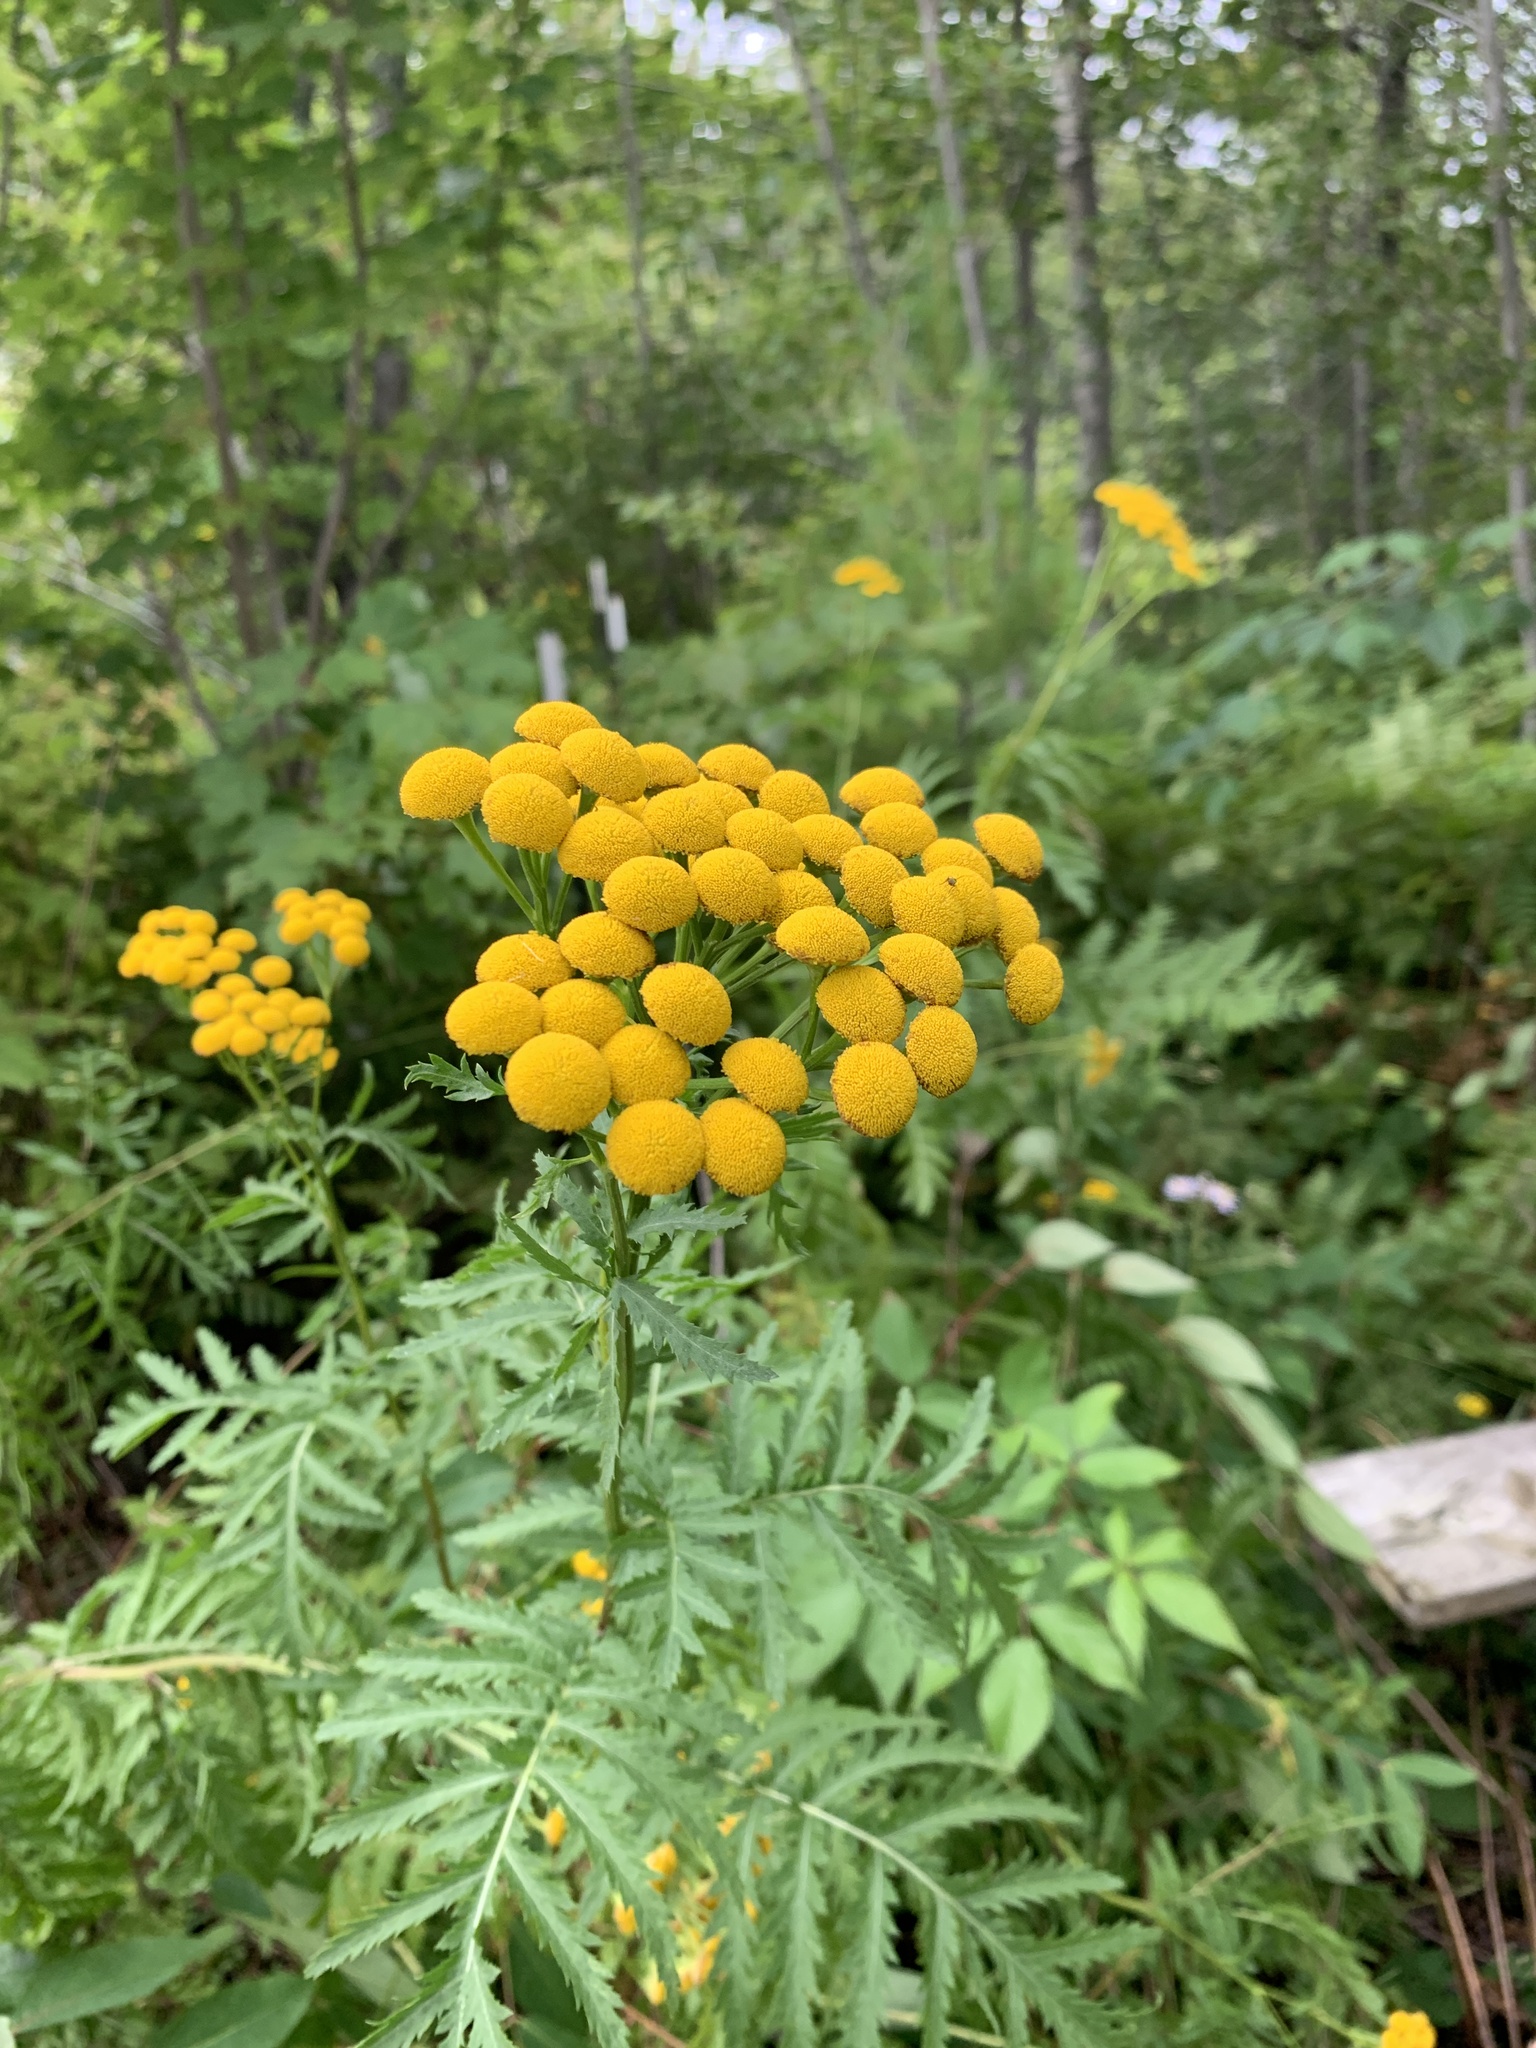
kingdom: Plantae
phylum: Tracheophyta
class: Magnoliopsida
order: Asterales
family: Asteraceae
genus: Tanacetum
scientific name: Tanacetum vulgare
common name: Common tansy
